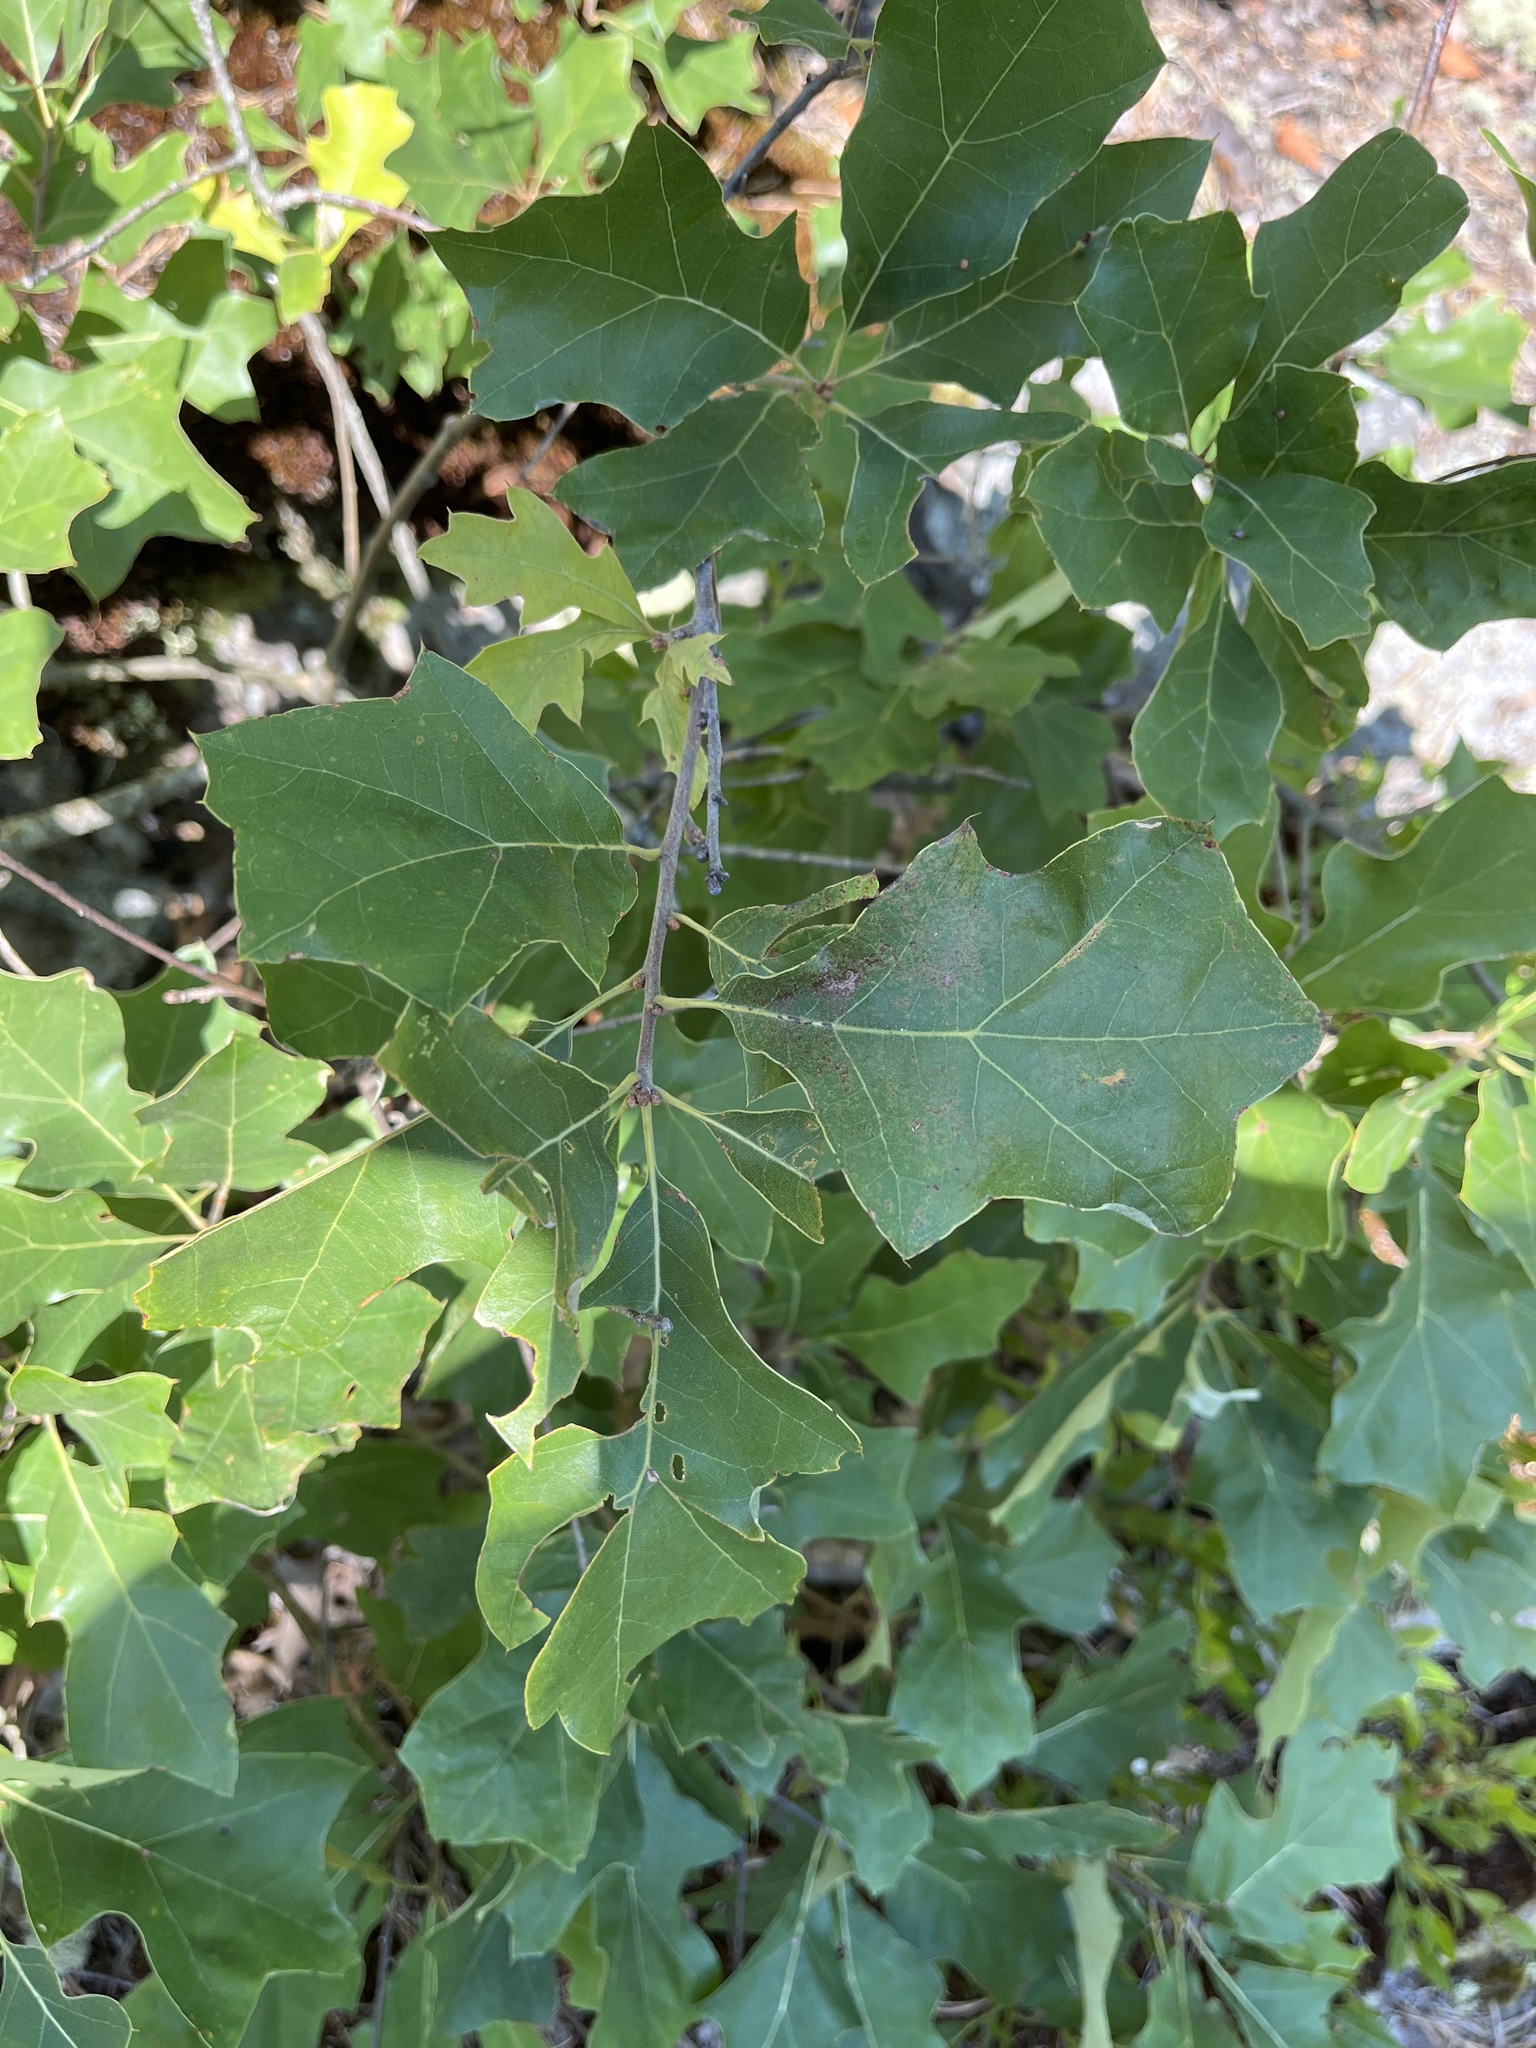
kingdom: Plantae
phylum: Tracheophyta
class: Magnoliopsida
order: Fagales
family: Fagaceae
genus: Quercus
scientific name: Quercus ilicifolia
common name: Bear oak
